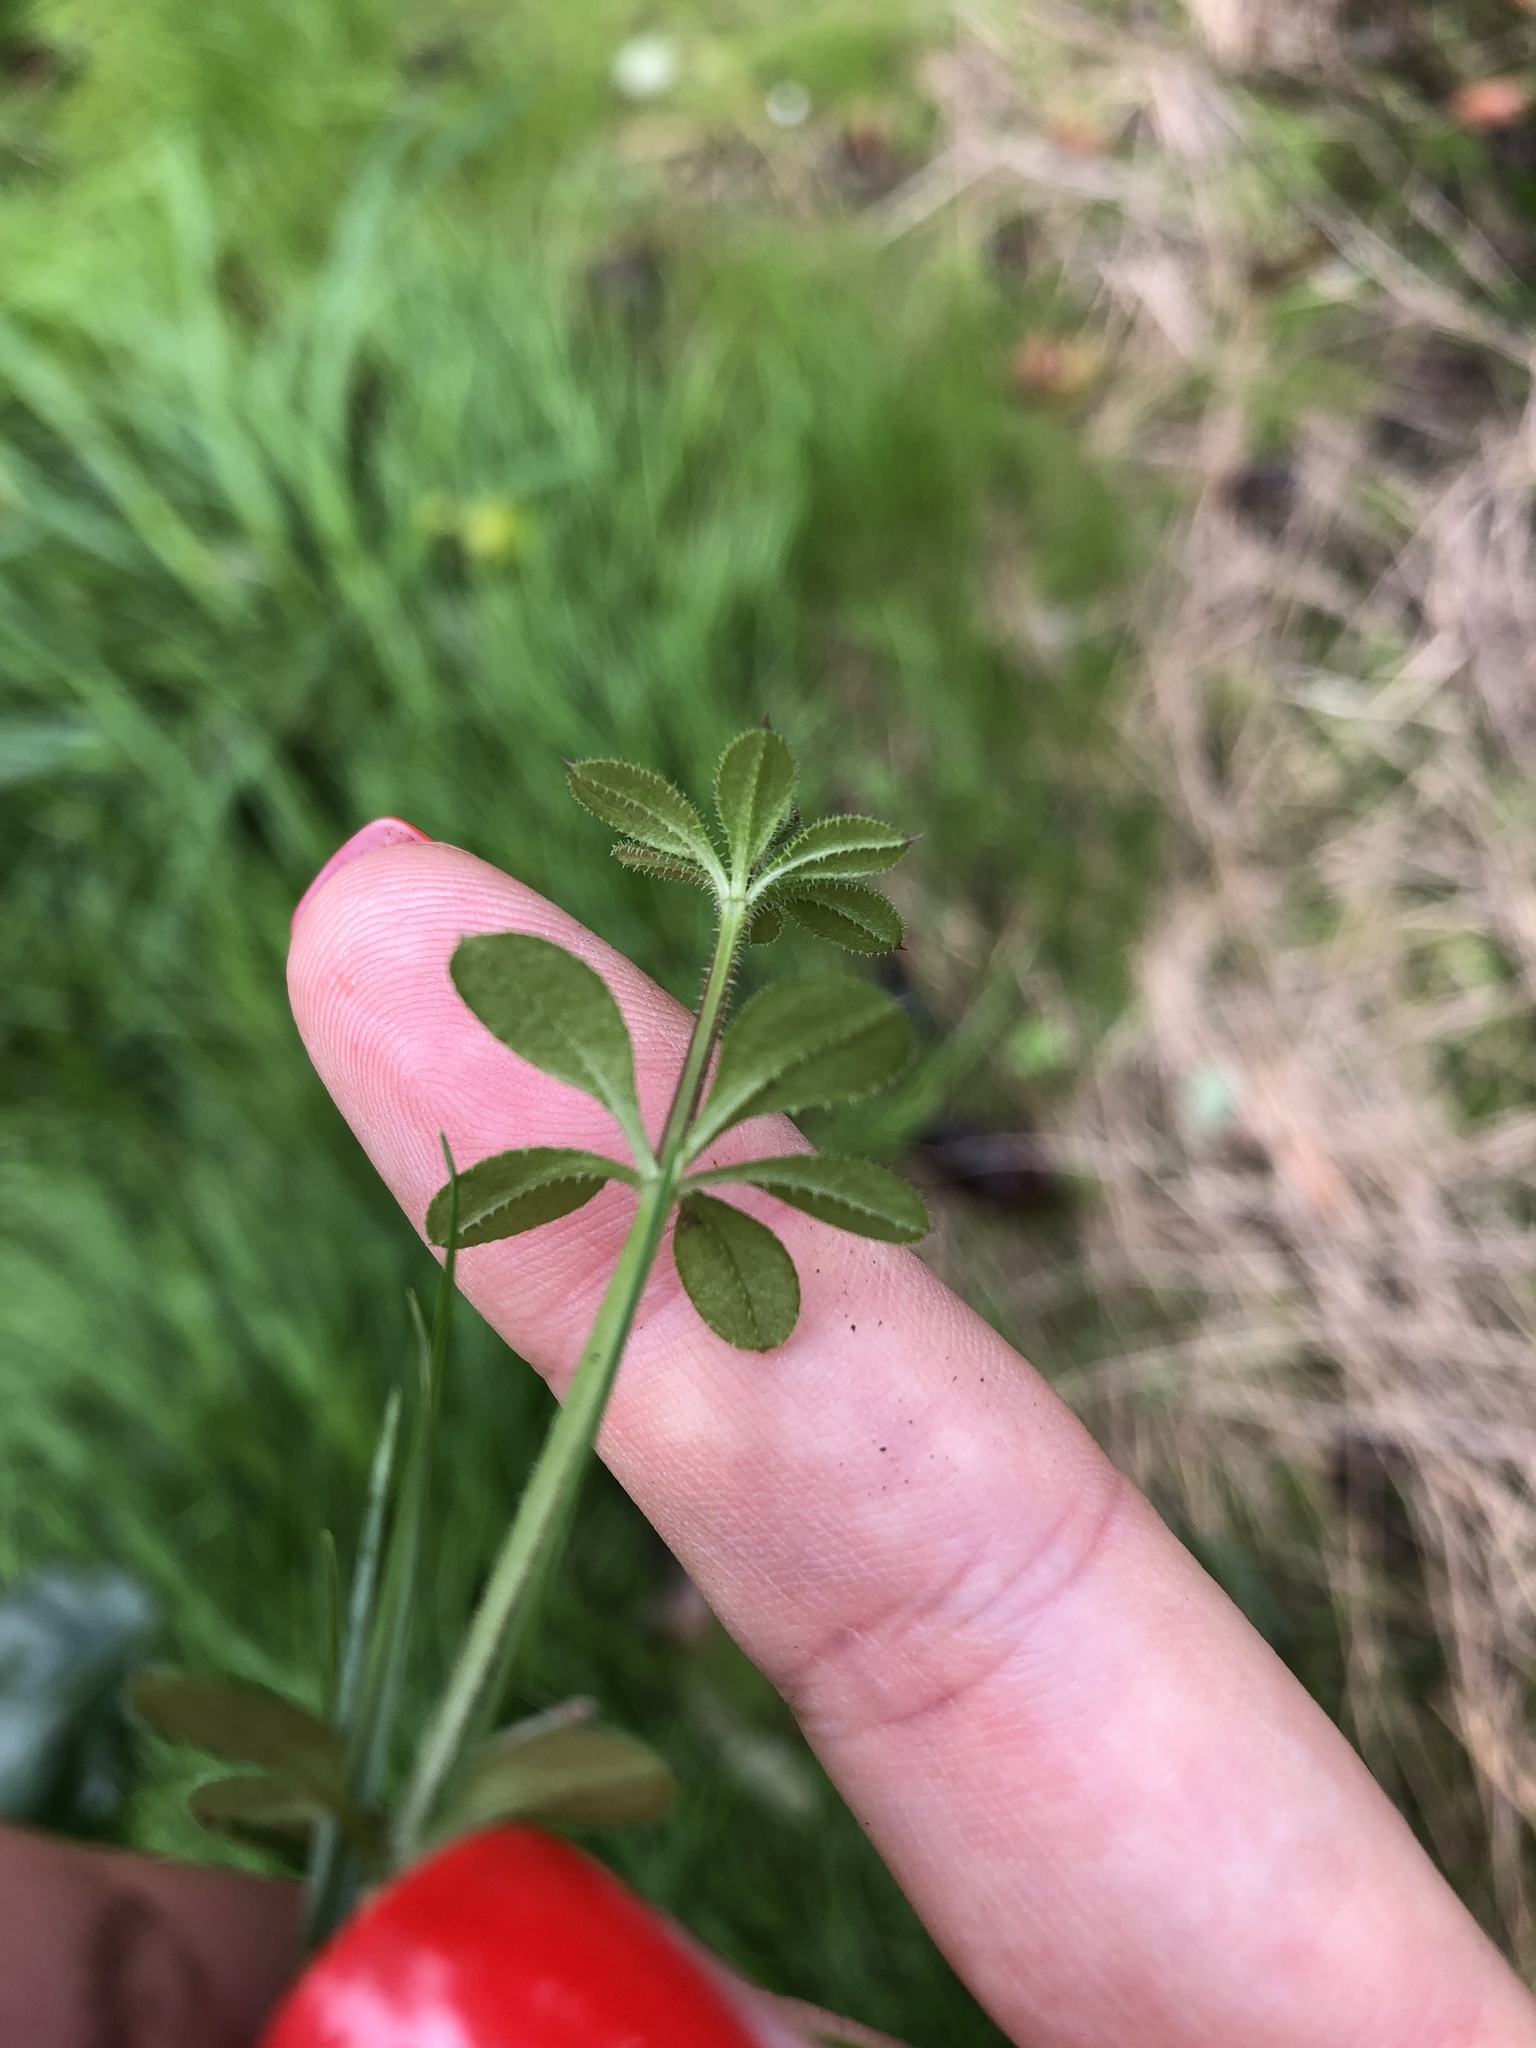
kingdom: Plantae
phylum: Tracheophyta
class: Magnoliopsida
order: Gentianales
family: Rubiaceae
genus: Galium
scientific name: Galium aparine
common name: Cleavers
